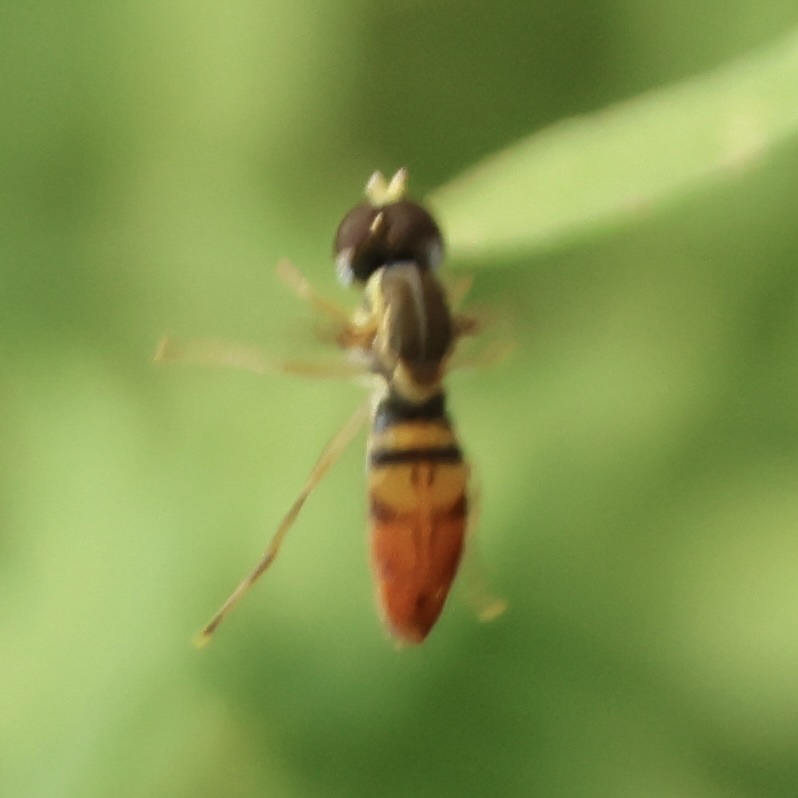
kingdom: Animalia
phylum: Arthropoda
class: Insecta
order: Diptera
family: Syrphidae
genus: Toxomerus
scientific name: Toxomerus marginatus
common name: Syrphid fly
